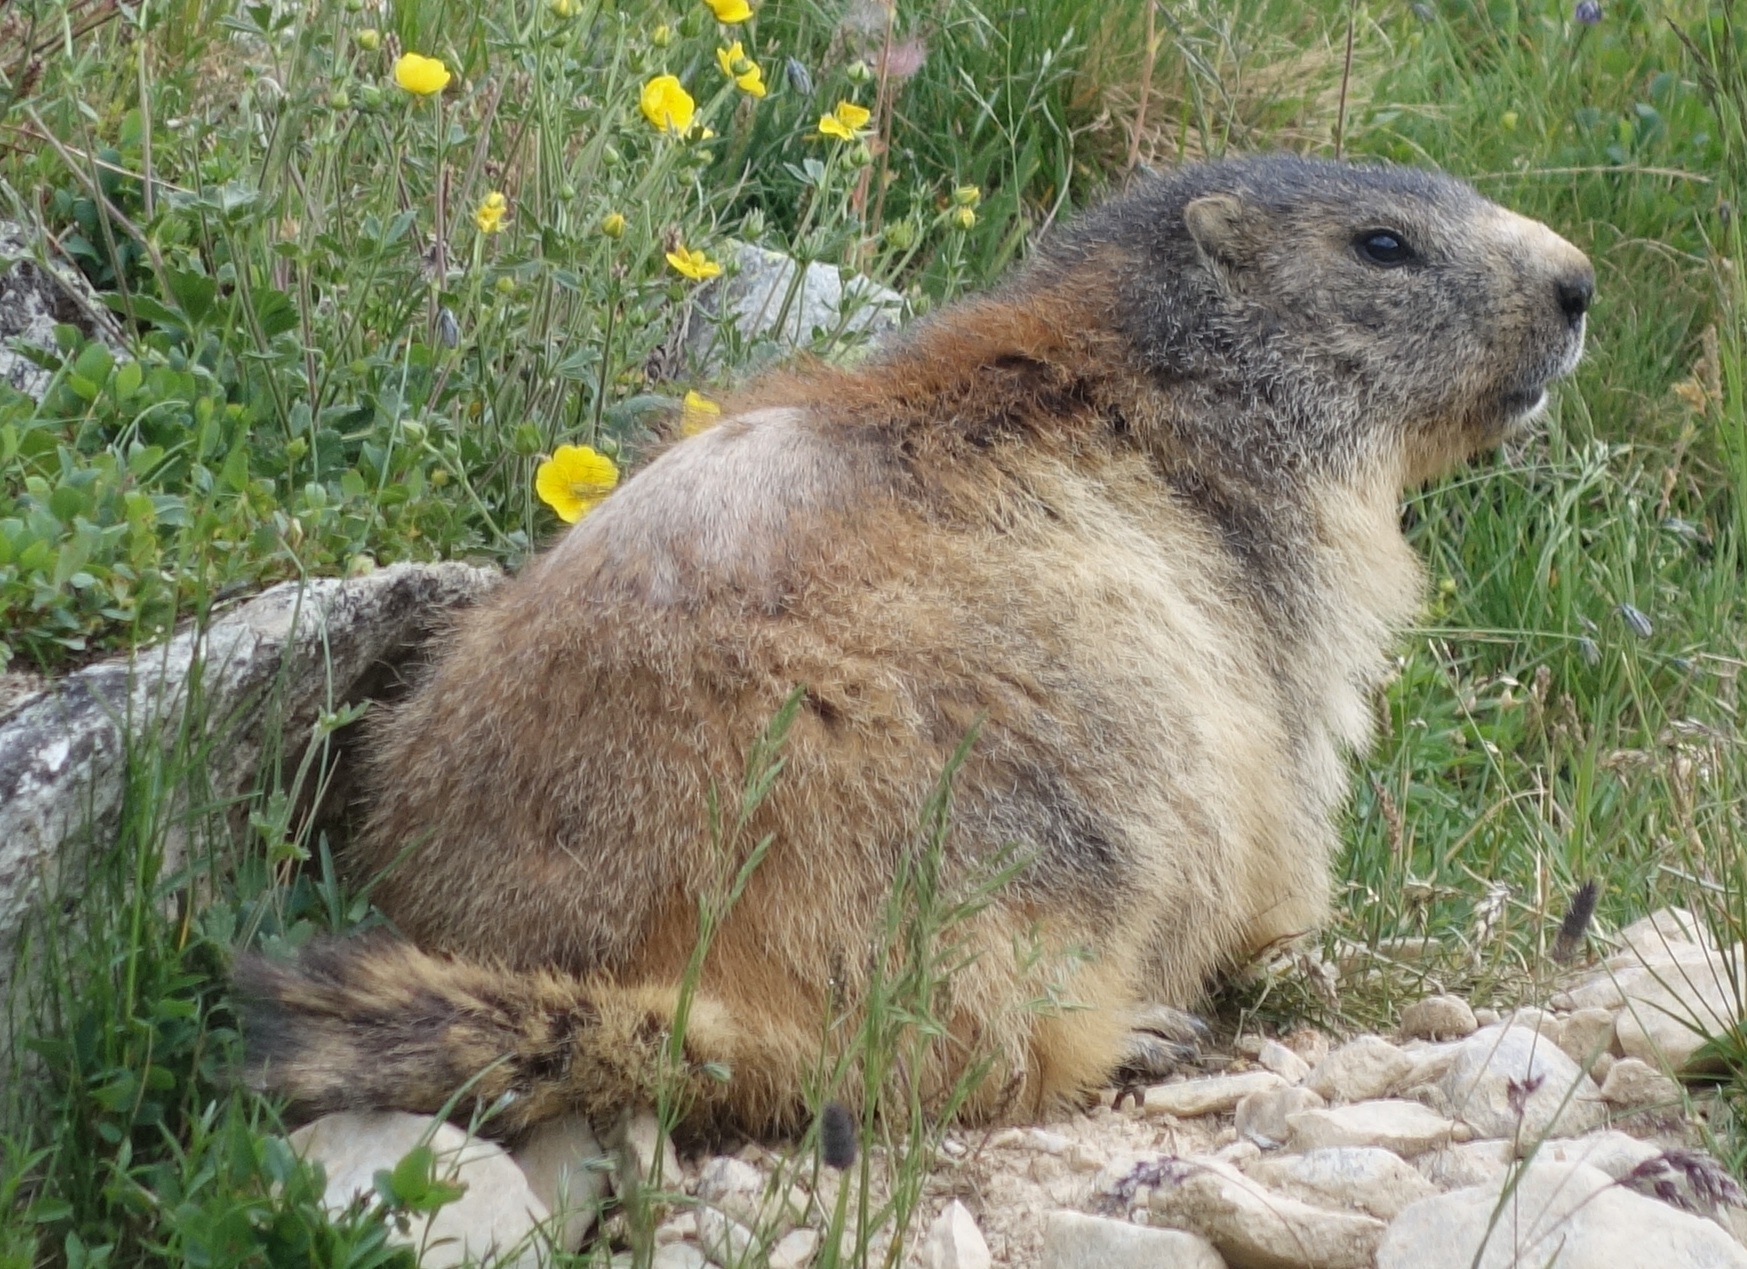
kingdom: Animalia
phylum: Chordata
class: Mammalia
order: Rodentia
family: Sciuridae
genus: Marmota
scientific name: Marmota marmota
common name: Alpine marmot
